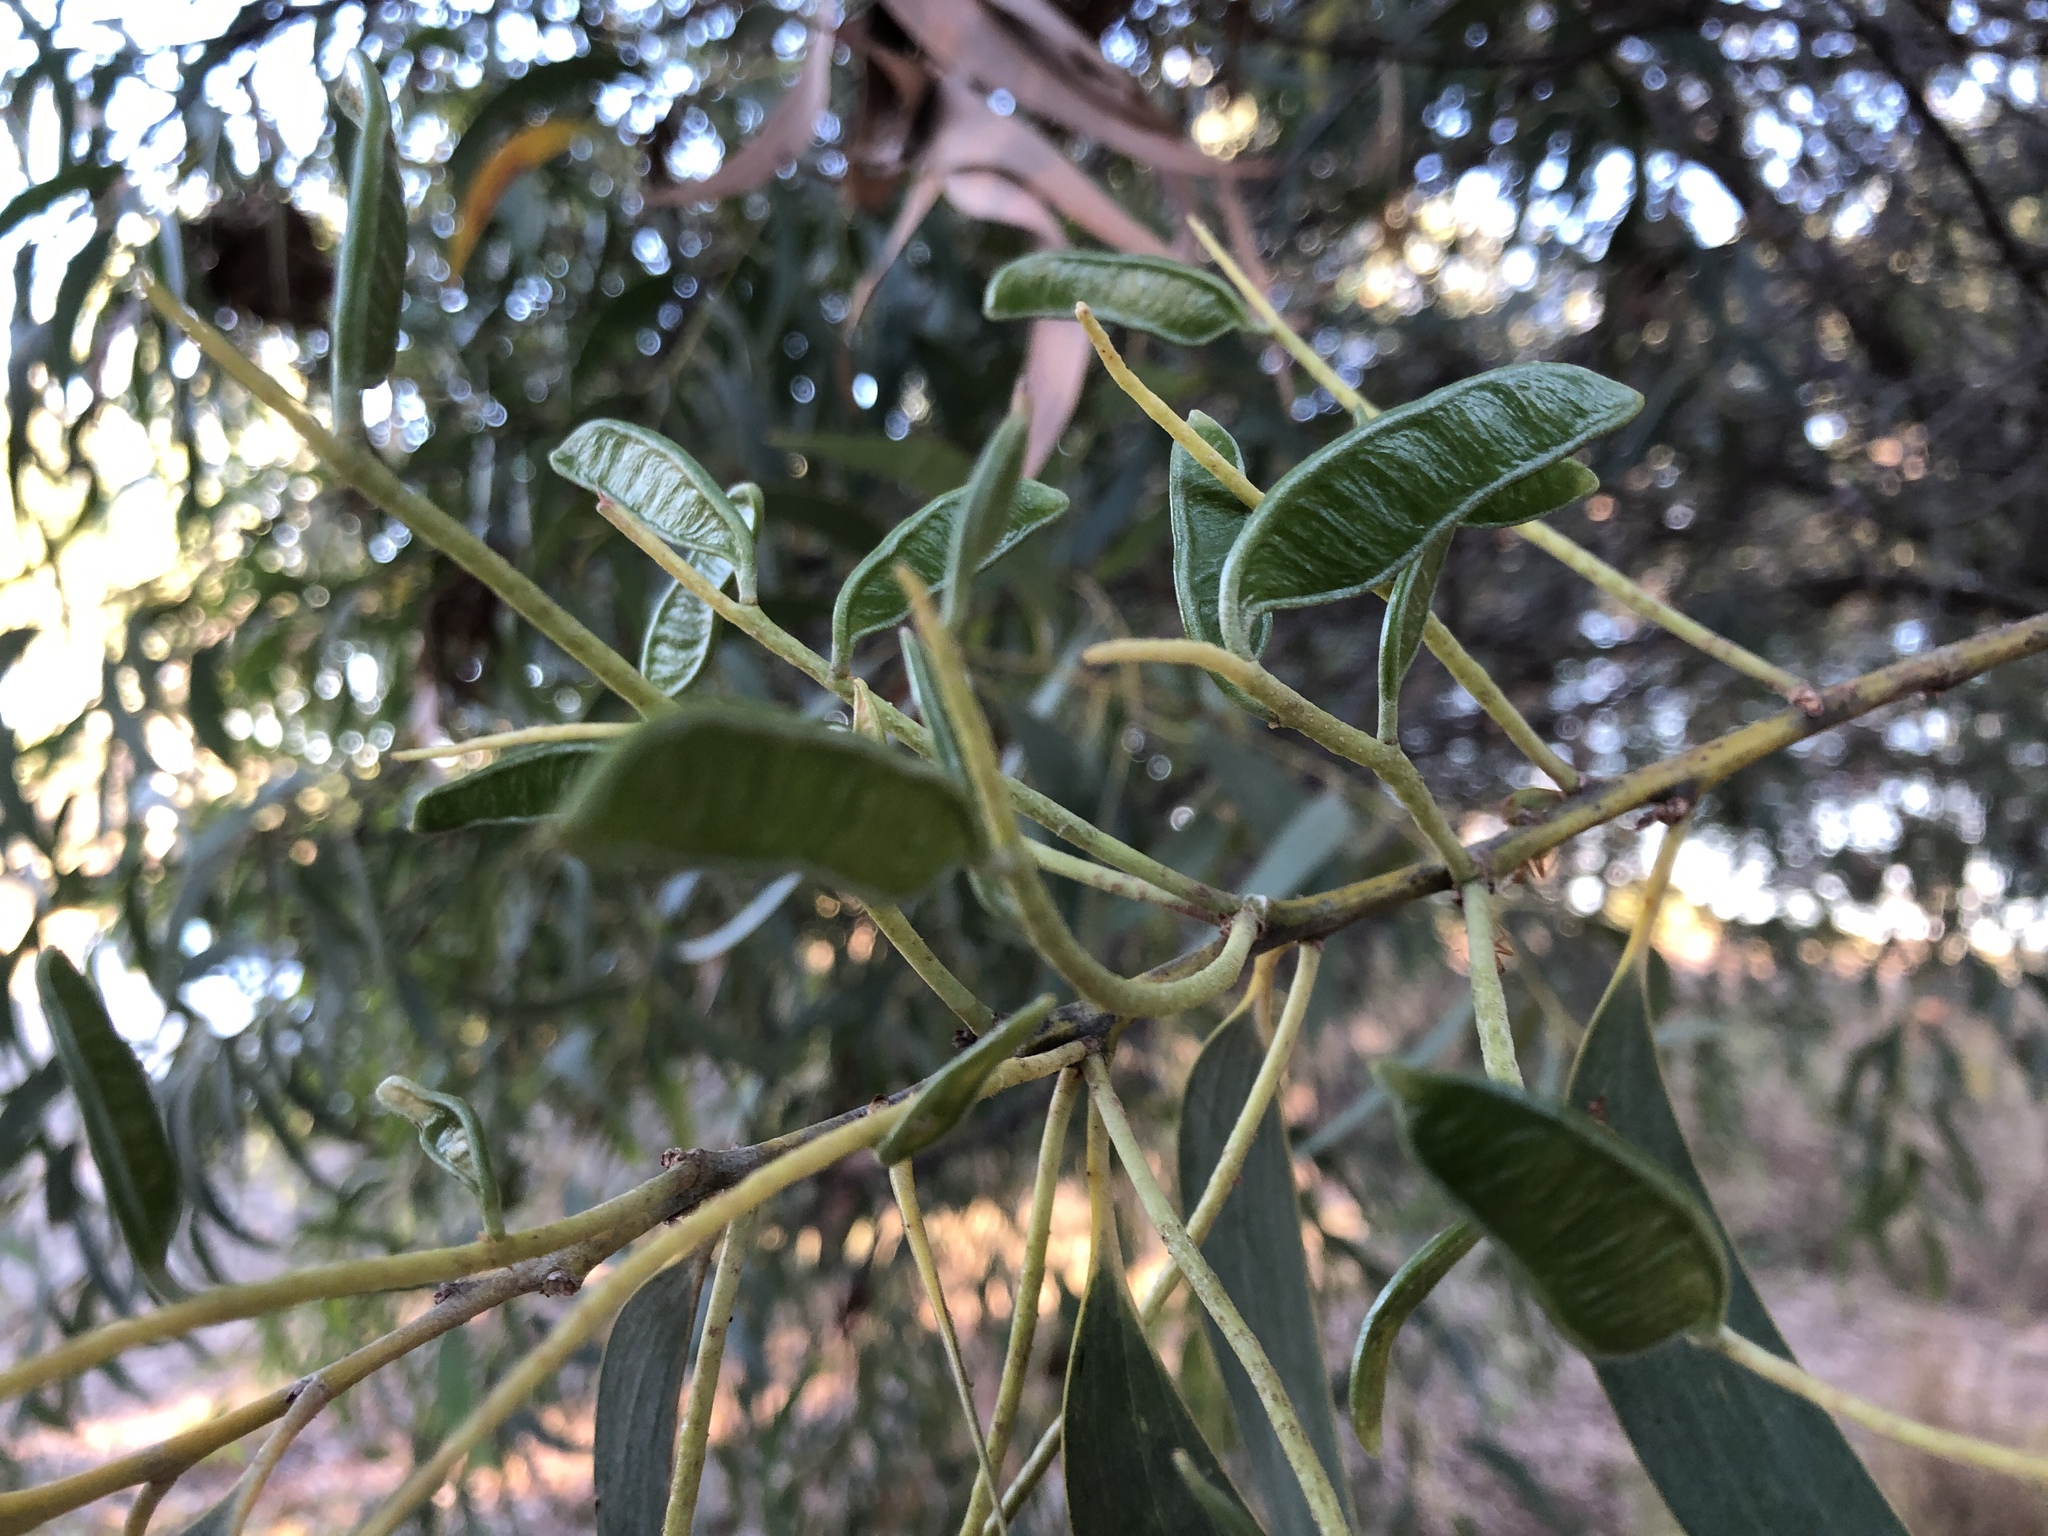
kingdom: Plantae
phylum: Tracheophyta
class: Magnoliopsida
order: Fabales
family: Fabaceae
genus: Acacia
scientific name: Acacia crassicarpa
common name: Northern wattle
